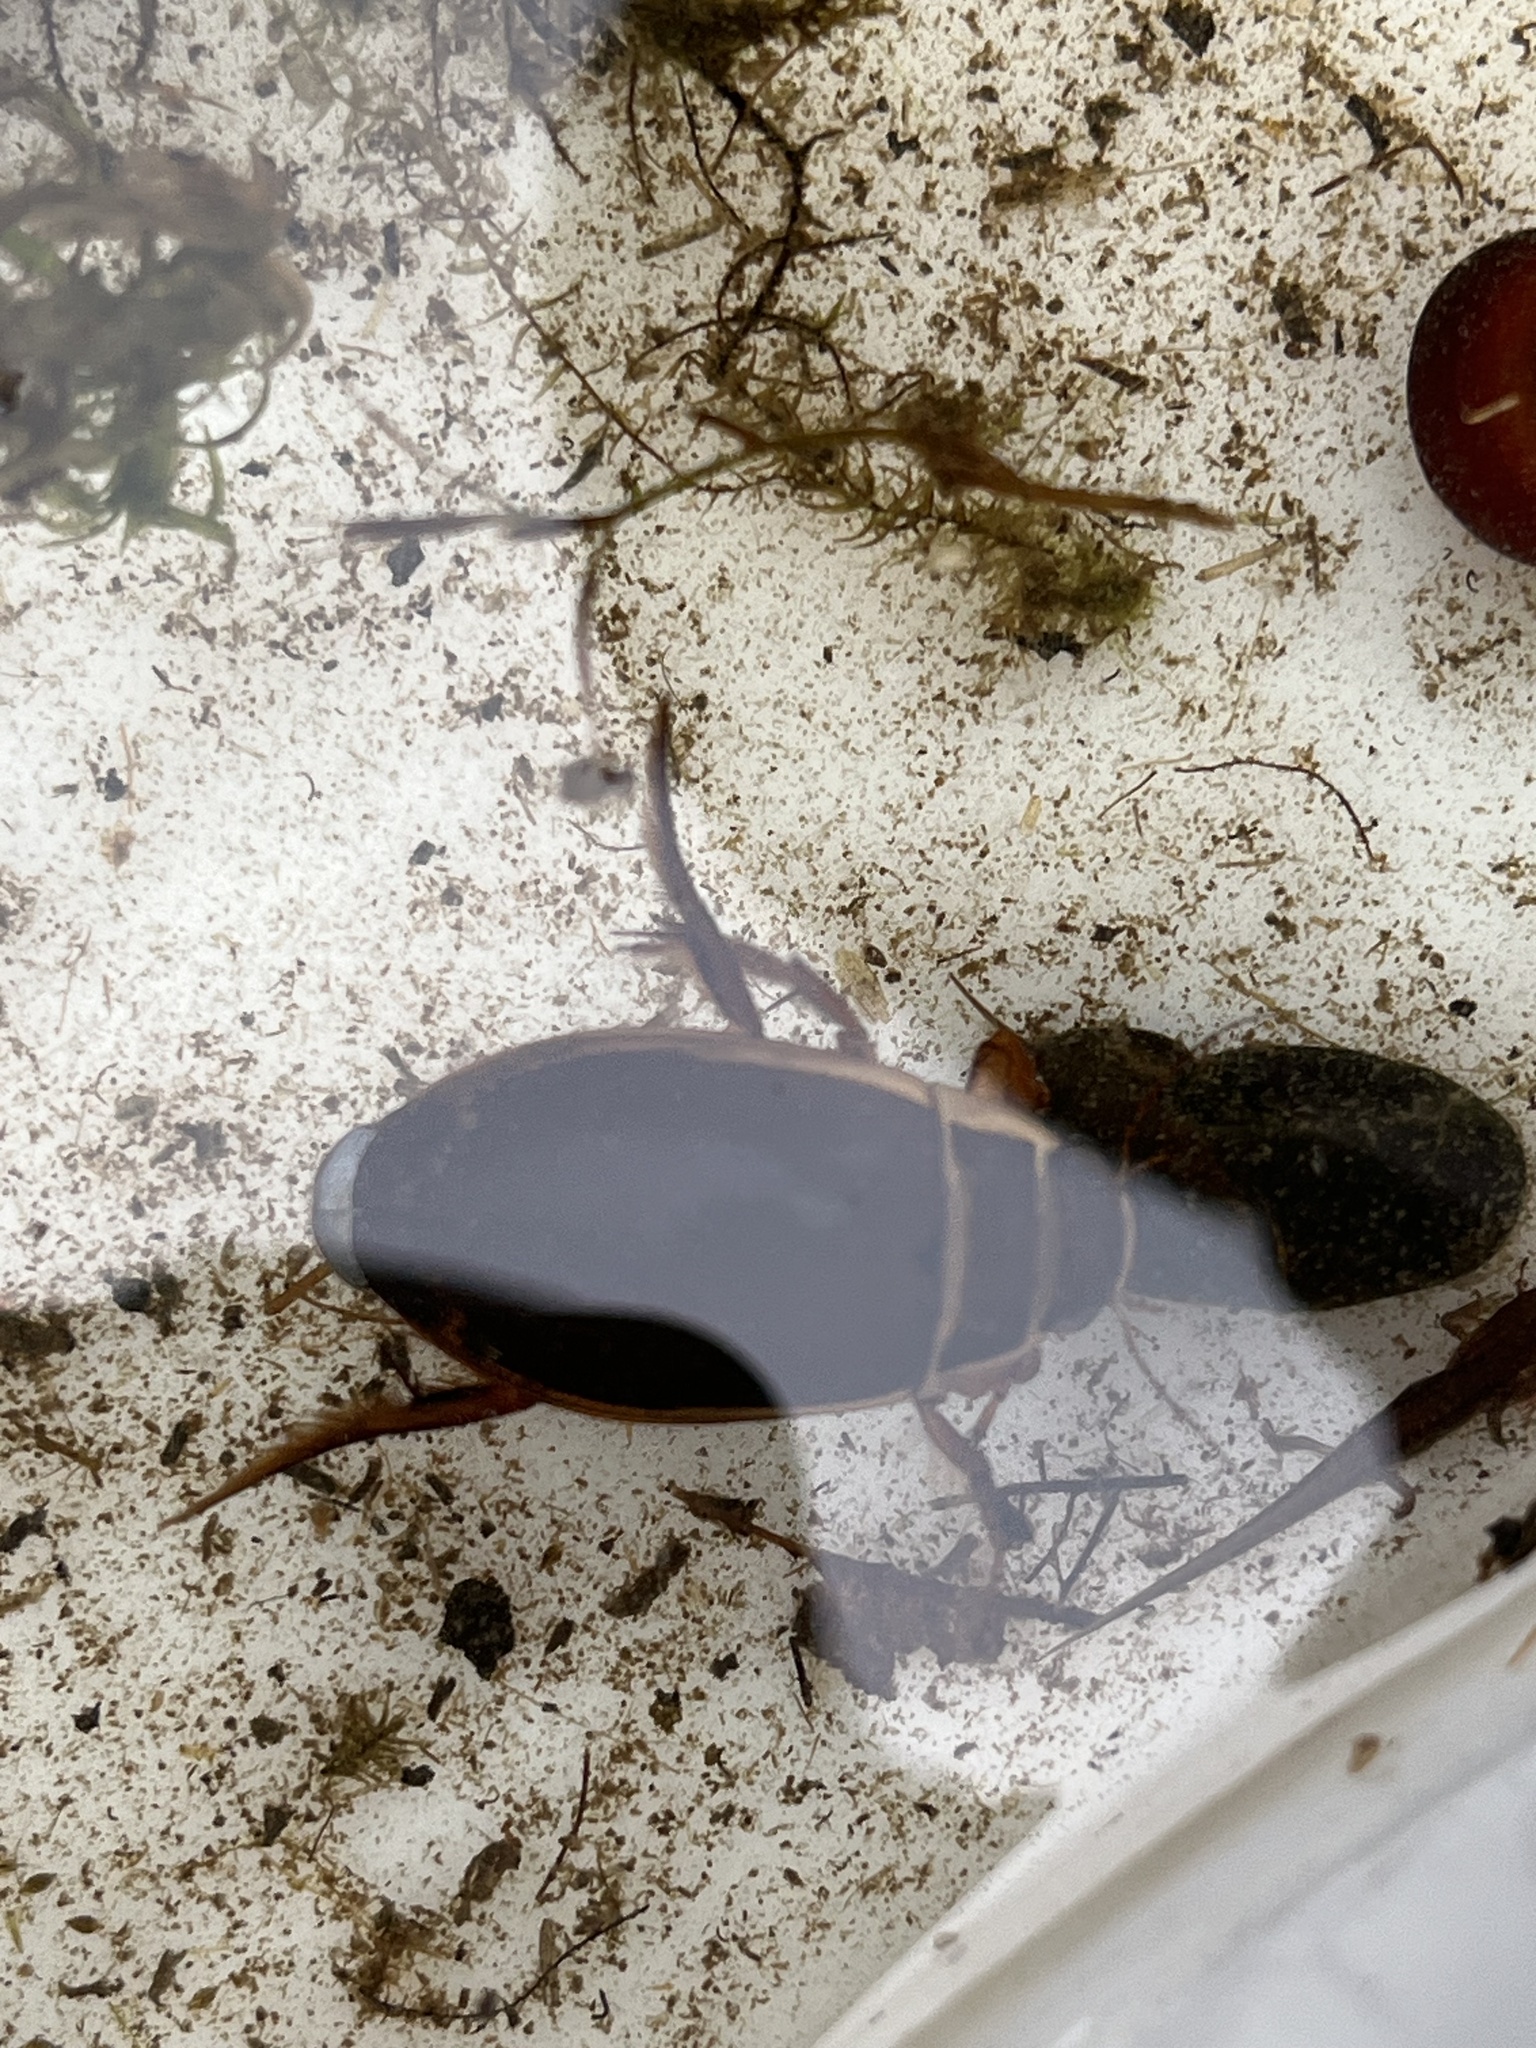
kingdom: Animalia
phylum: Arthropoda
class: Insecta
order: Coleoptera
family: Dytiscidae
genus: Dytiscus
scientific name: Dytiscus marginalis
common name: Great water beetle
